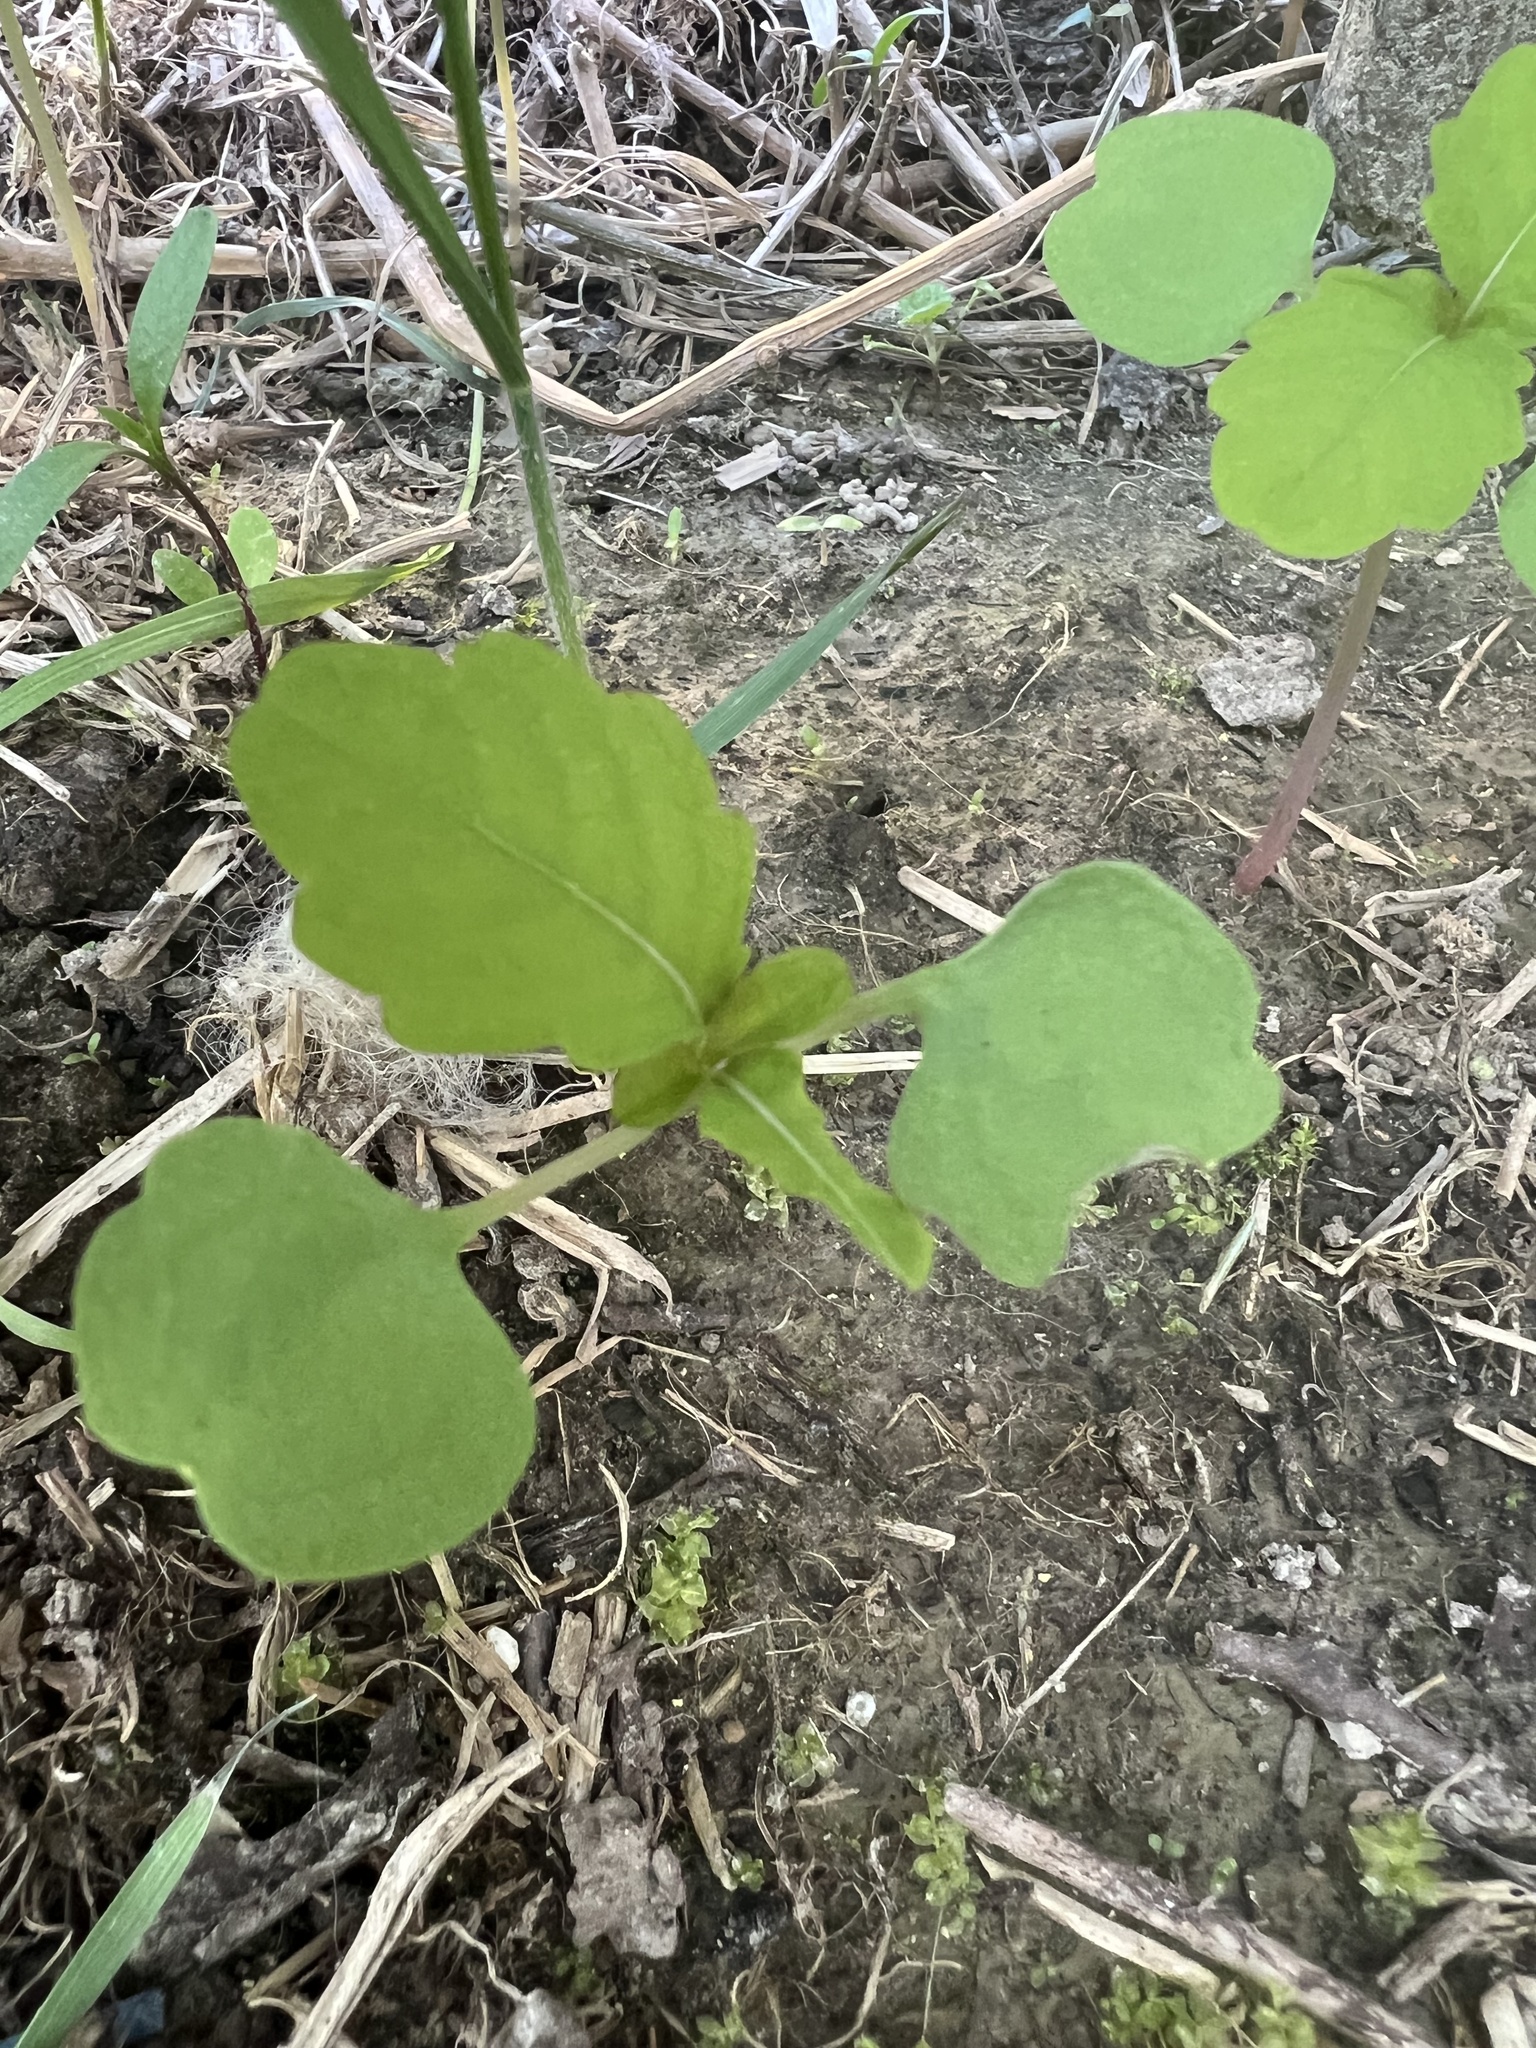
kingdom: Plantae
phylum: Tracheophyta
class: Magnoliopsida
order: Ericales
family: Balsaminaceae
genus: Impatiens
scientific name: Impatiens capensis
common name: Orange balsam
